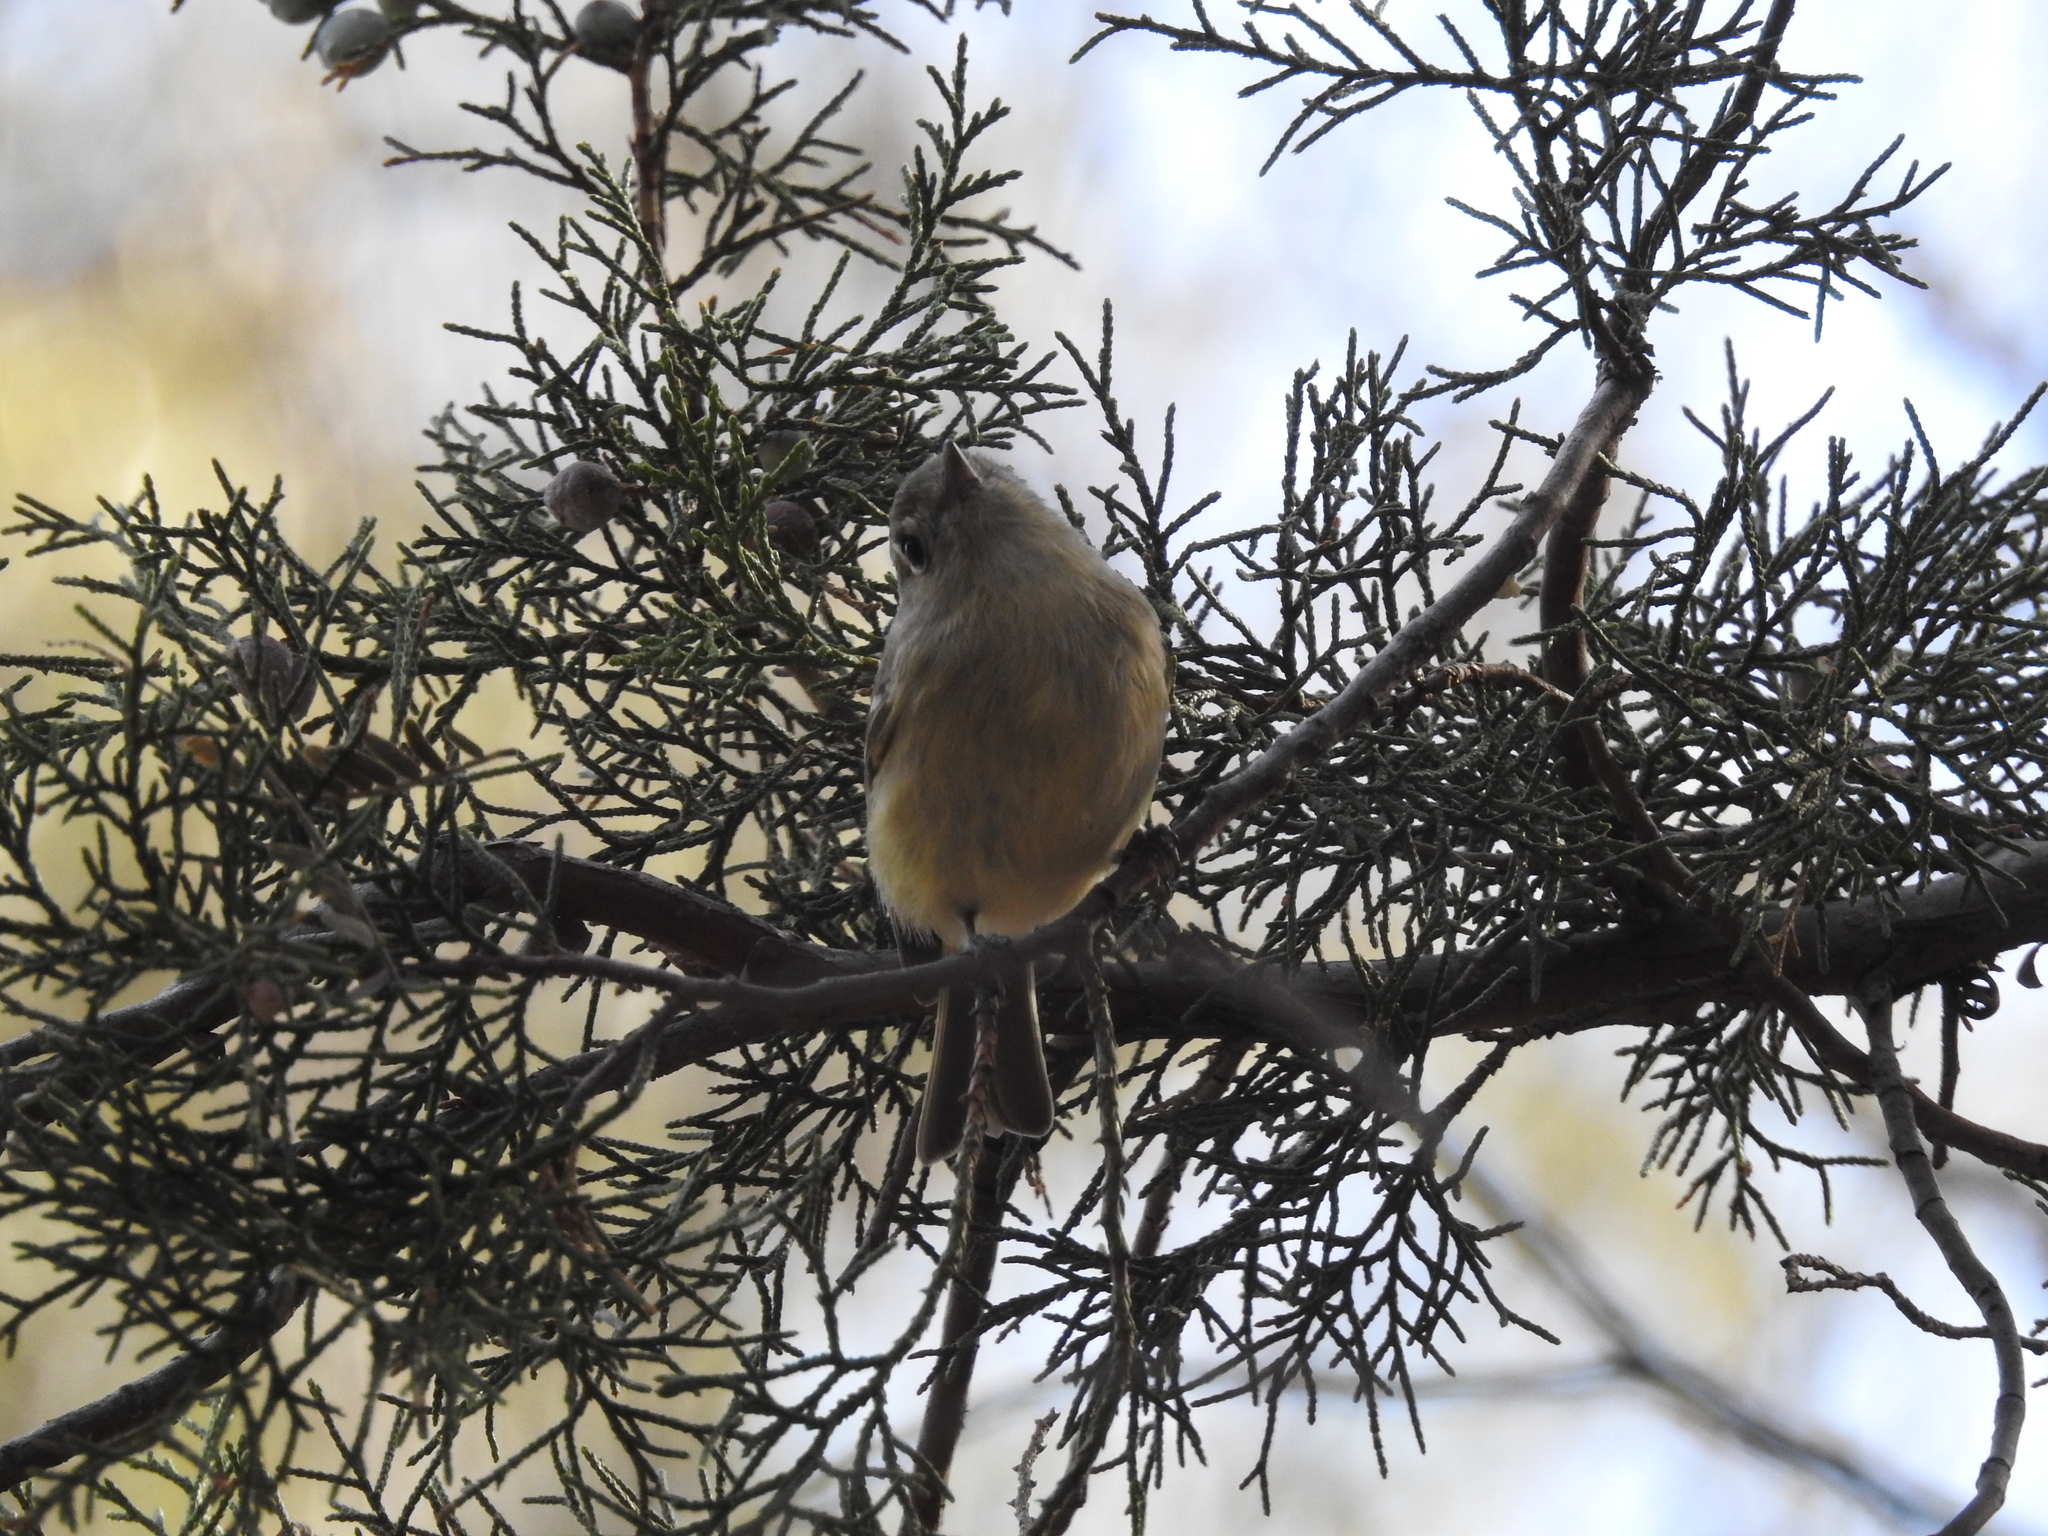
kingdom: Animalia
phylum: Chordata
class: Aves
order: Passeriformes
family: Regulidae
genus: Regulus
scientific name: Regulus calendula
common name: Ruby-crowned kinglet
